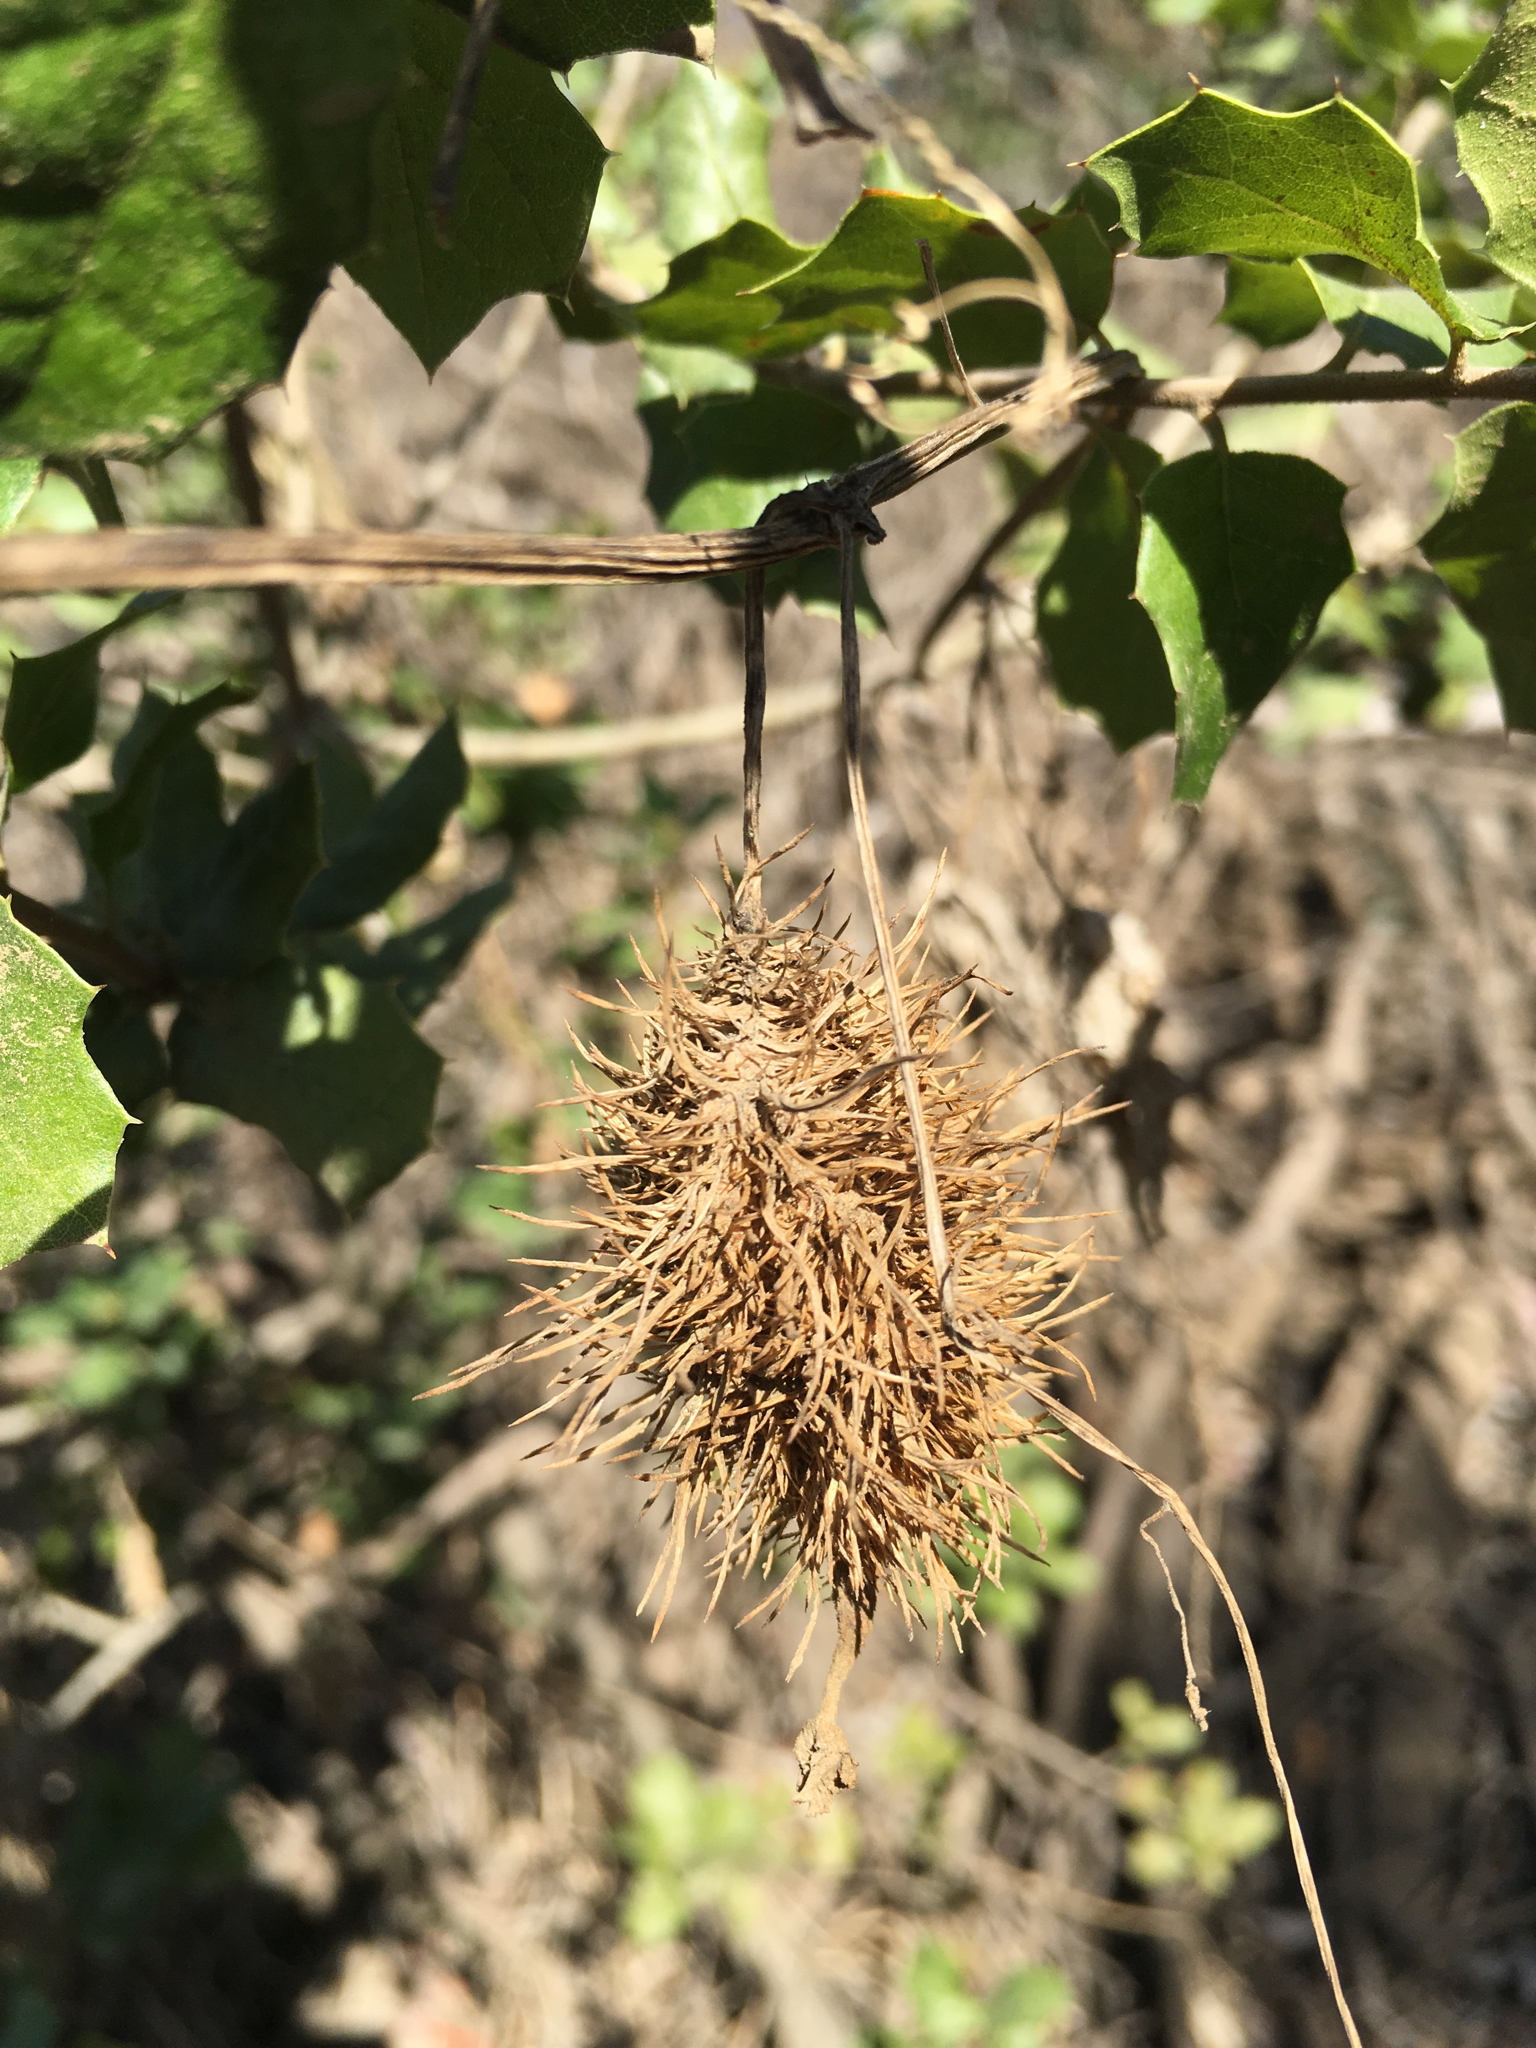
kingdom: Plantae
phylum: Tracheophyta
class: Magnoliopsida
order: Cucurbitales
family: Cucurbitaceae
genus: Marah
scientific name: Marah macrocarpa
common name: Cucamonga manroot
